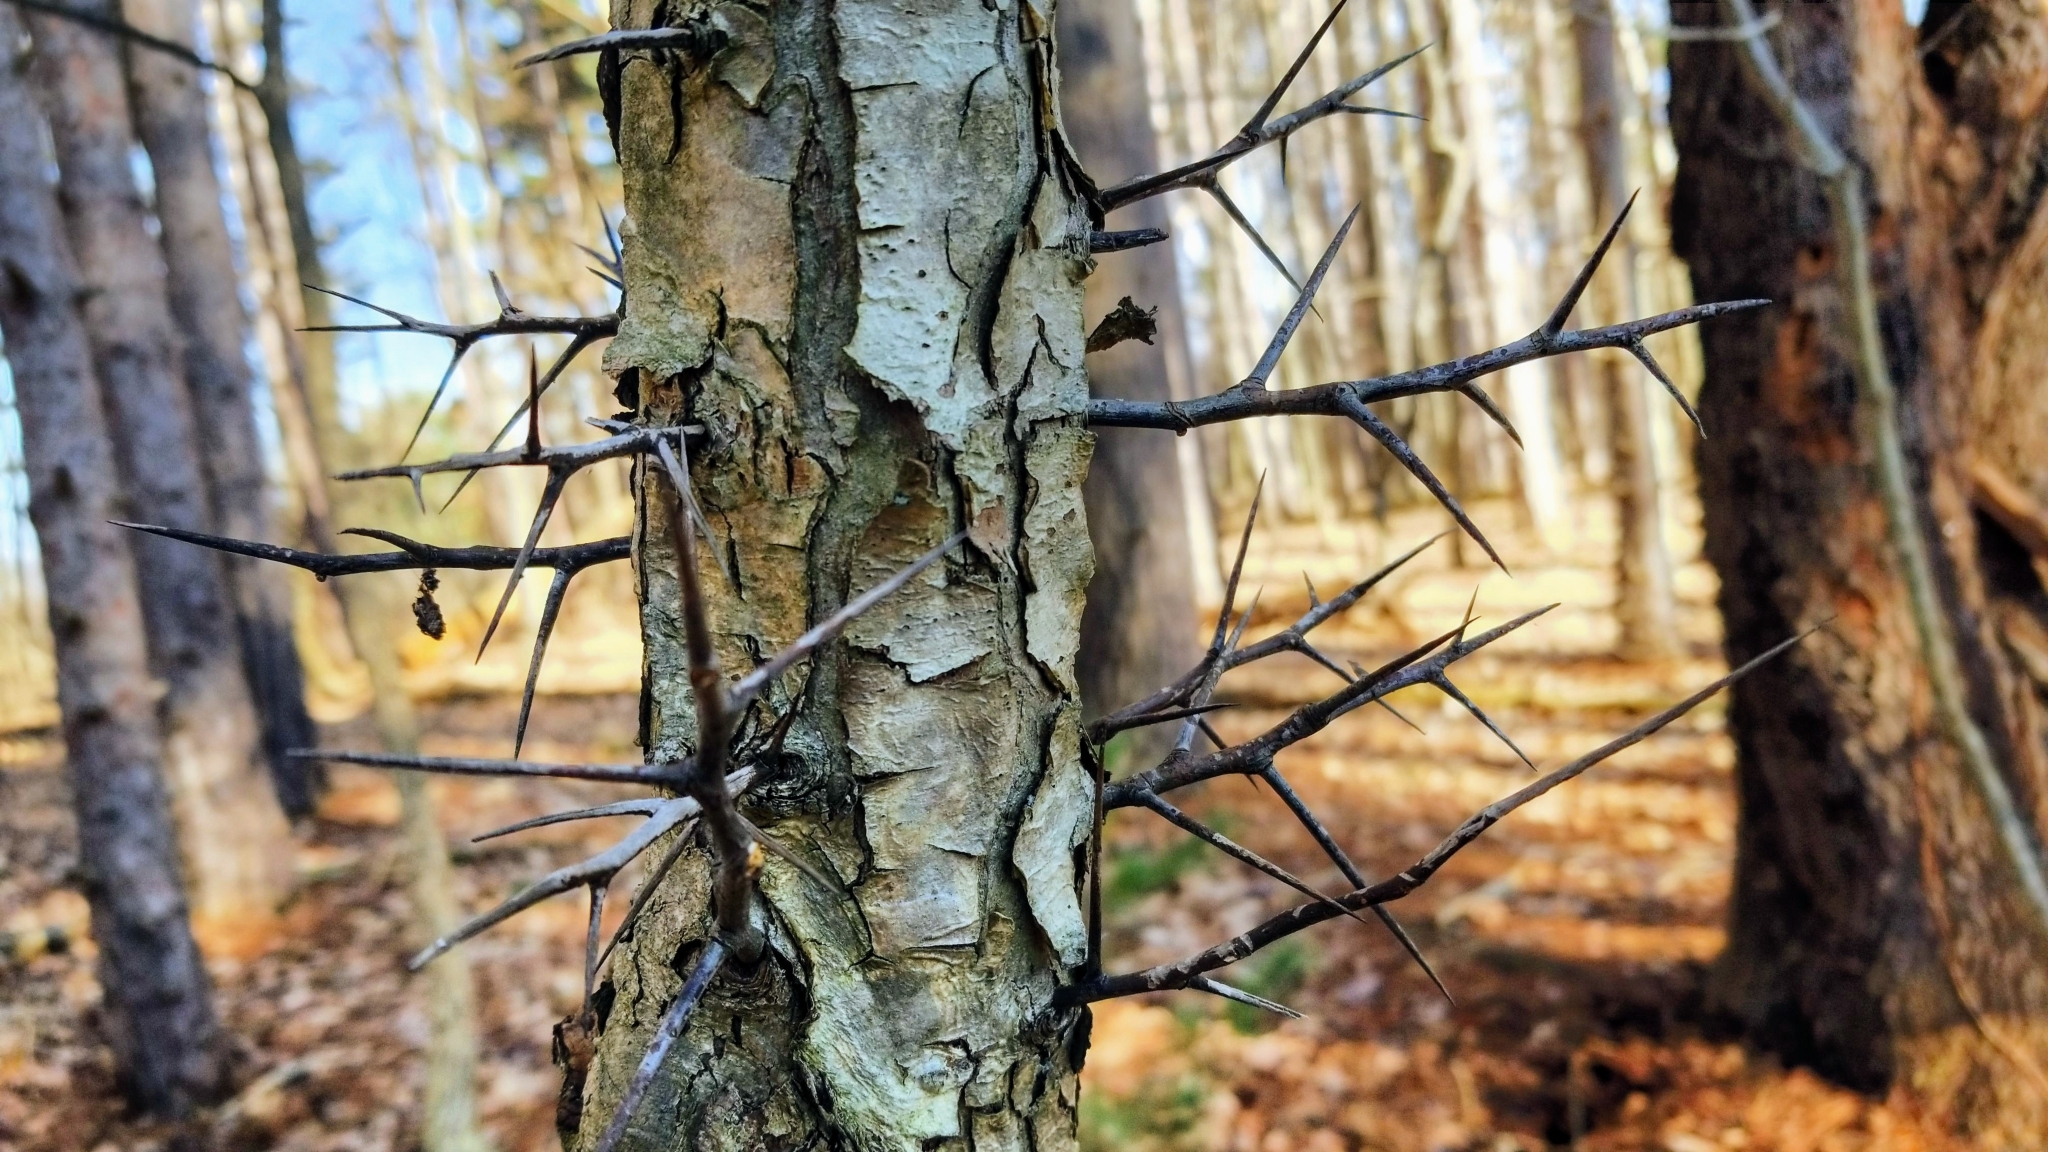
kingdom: Plantae
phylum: Tracheophyta
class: Magnoliopsida
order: Fabales
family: Fabaceae
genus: Gleditsia
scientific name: Gleditsia triacanthos
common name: Common honeylocust
